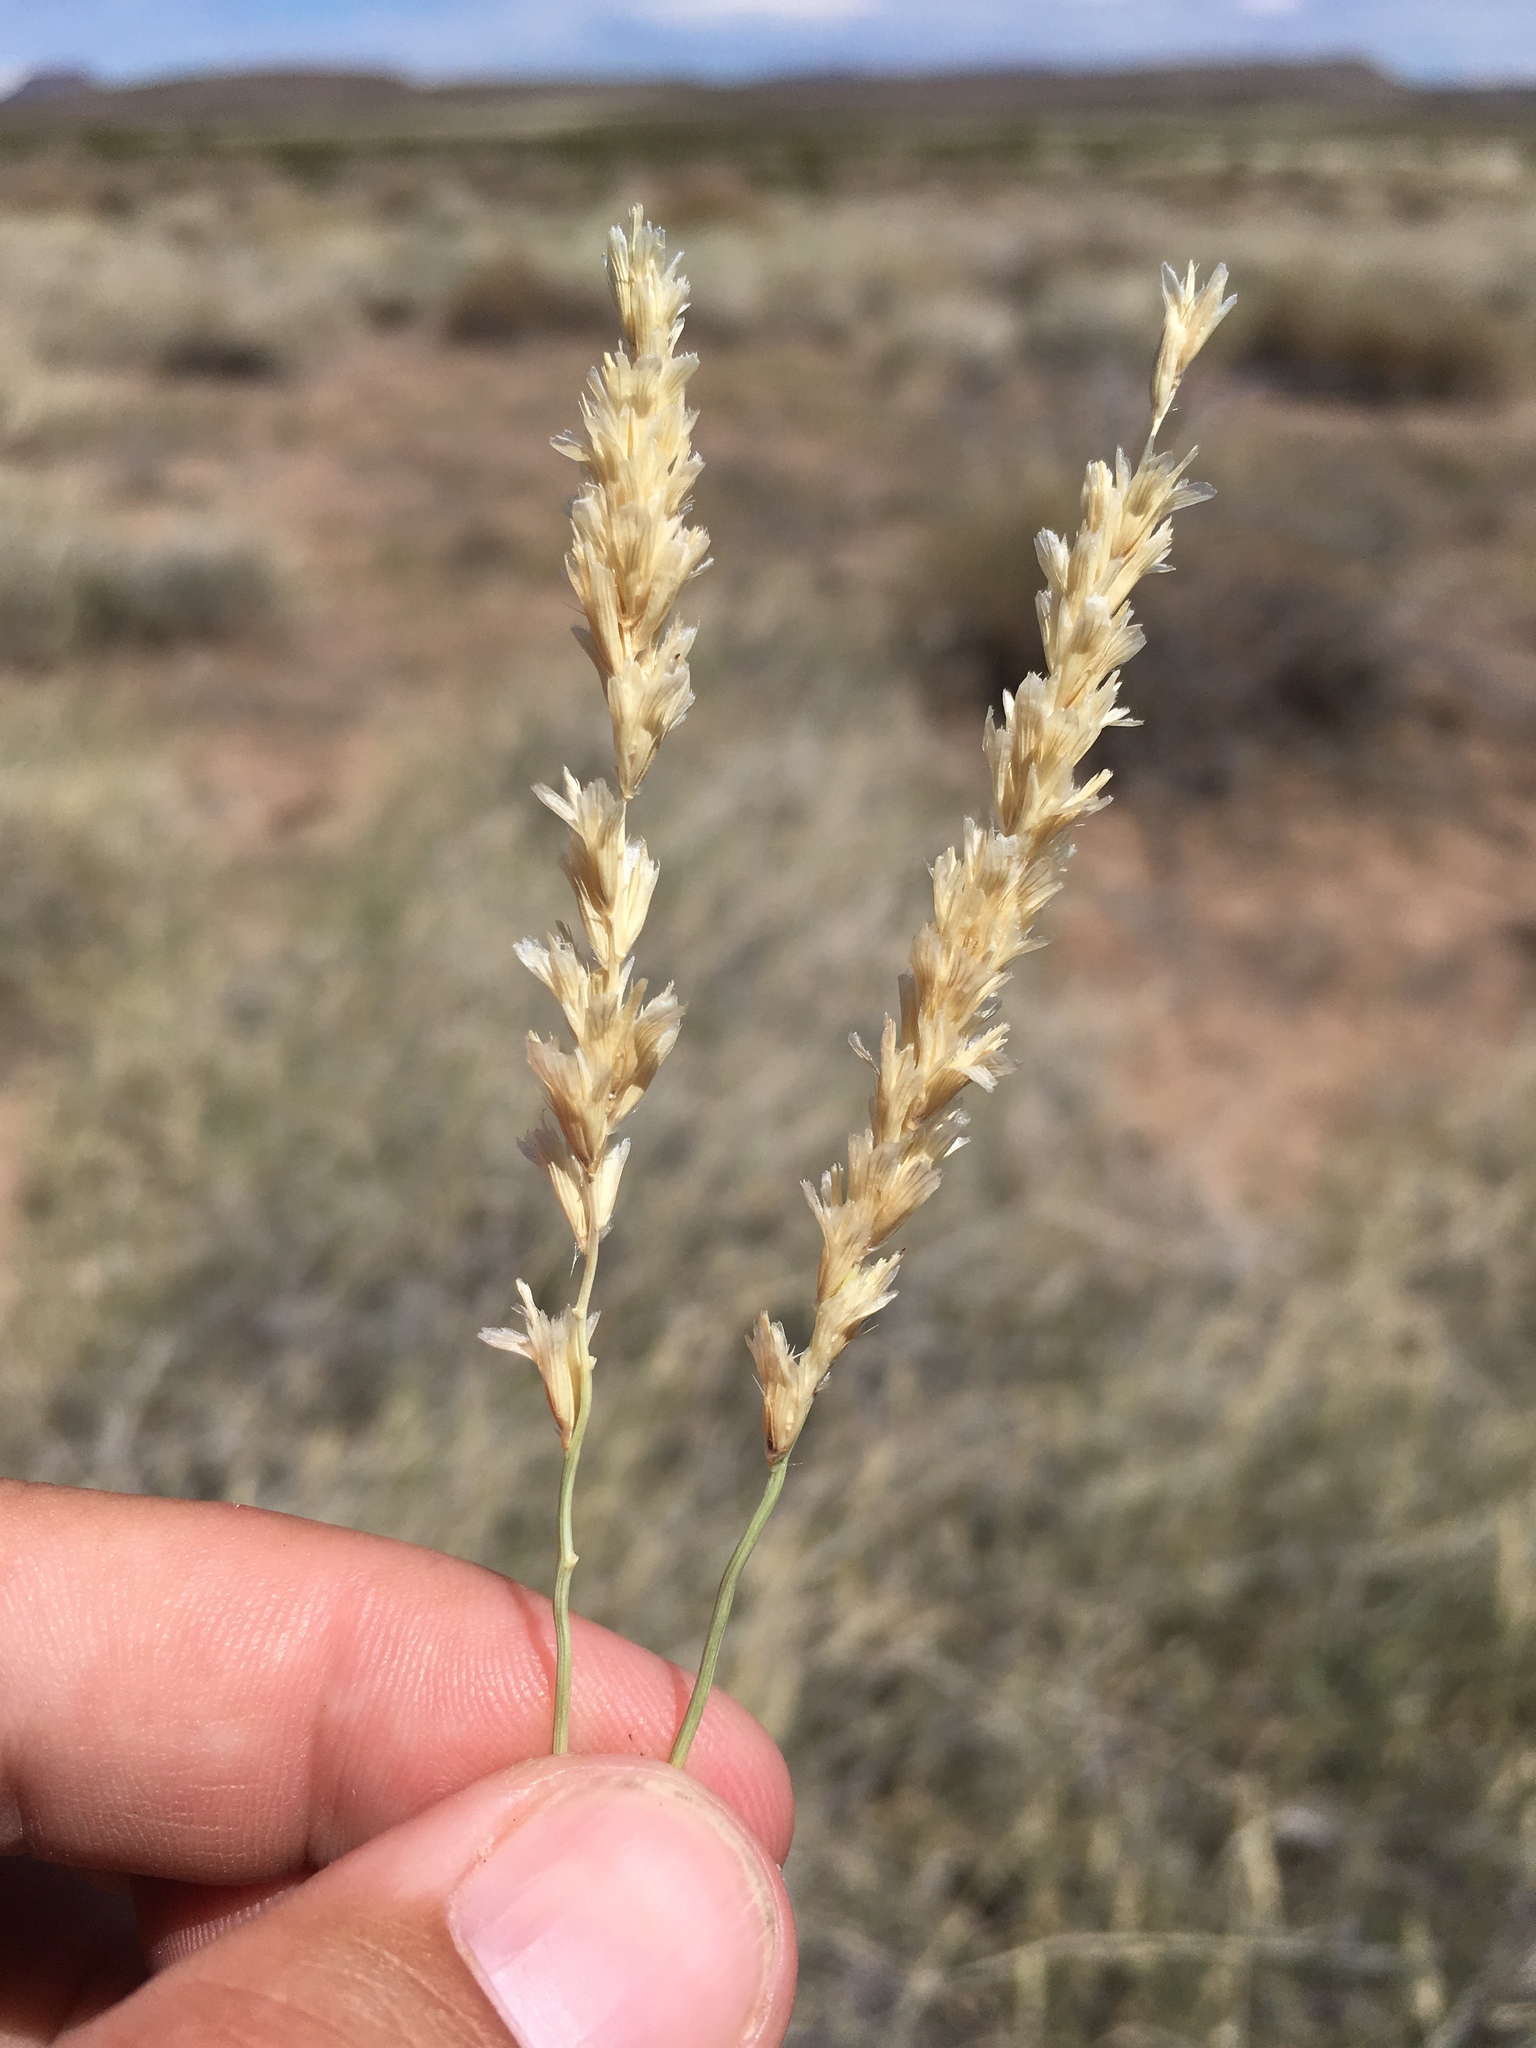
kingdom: Plantae
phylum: Tracheophyta
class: Liliopsida
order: Poales
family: Poaceae
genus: Hilaria
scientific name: Hilaria mutica
